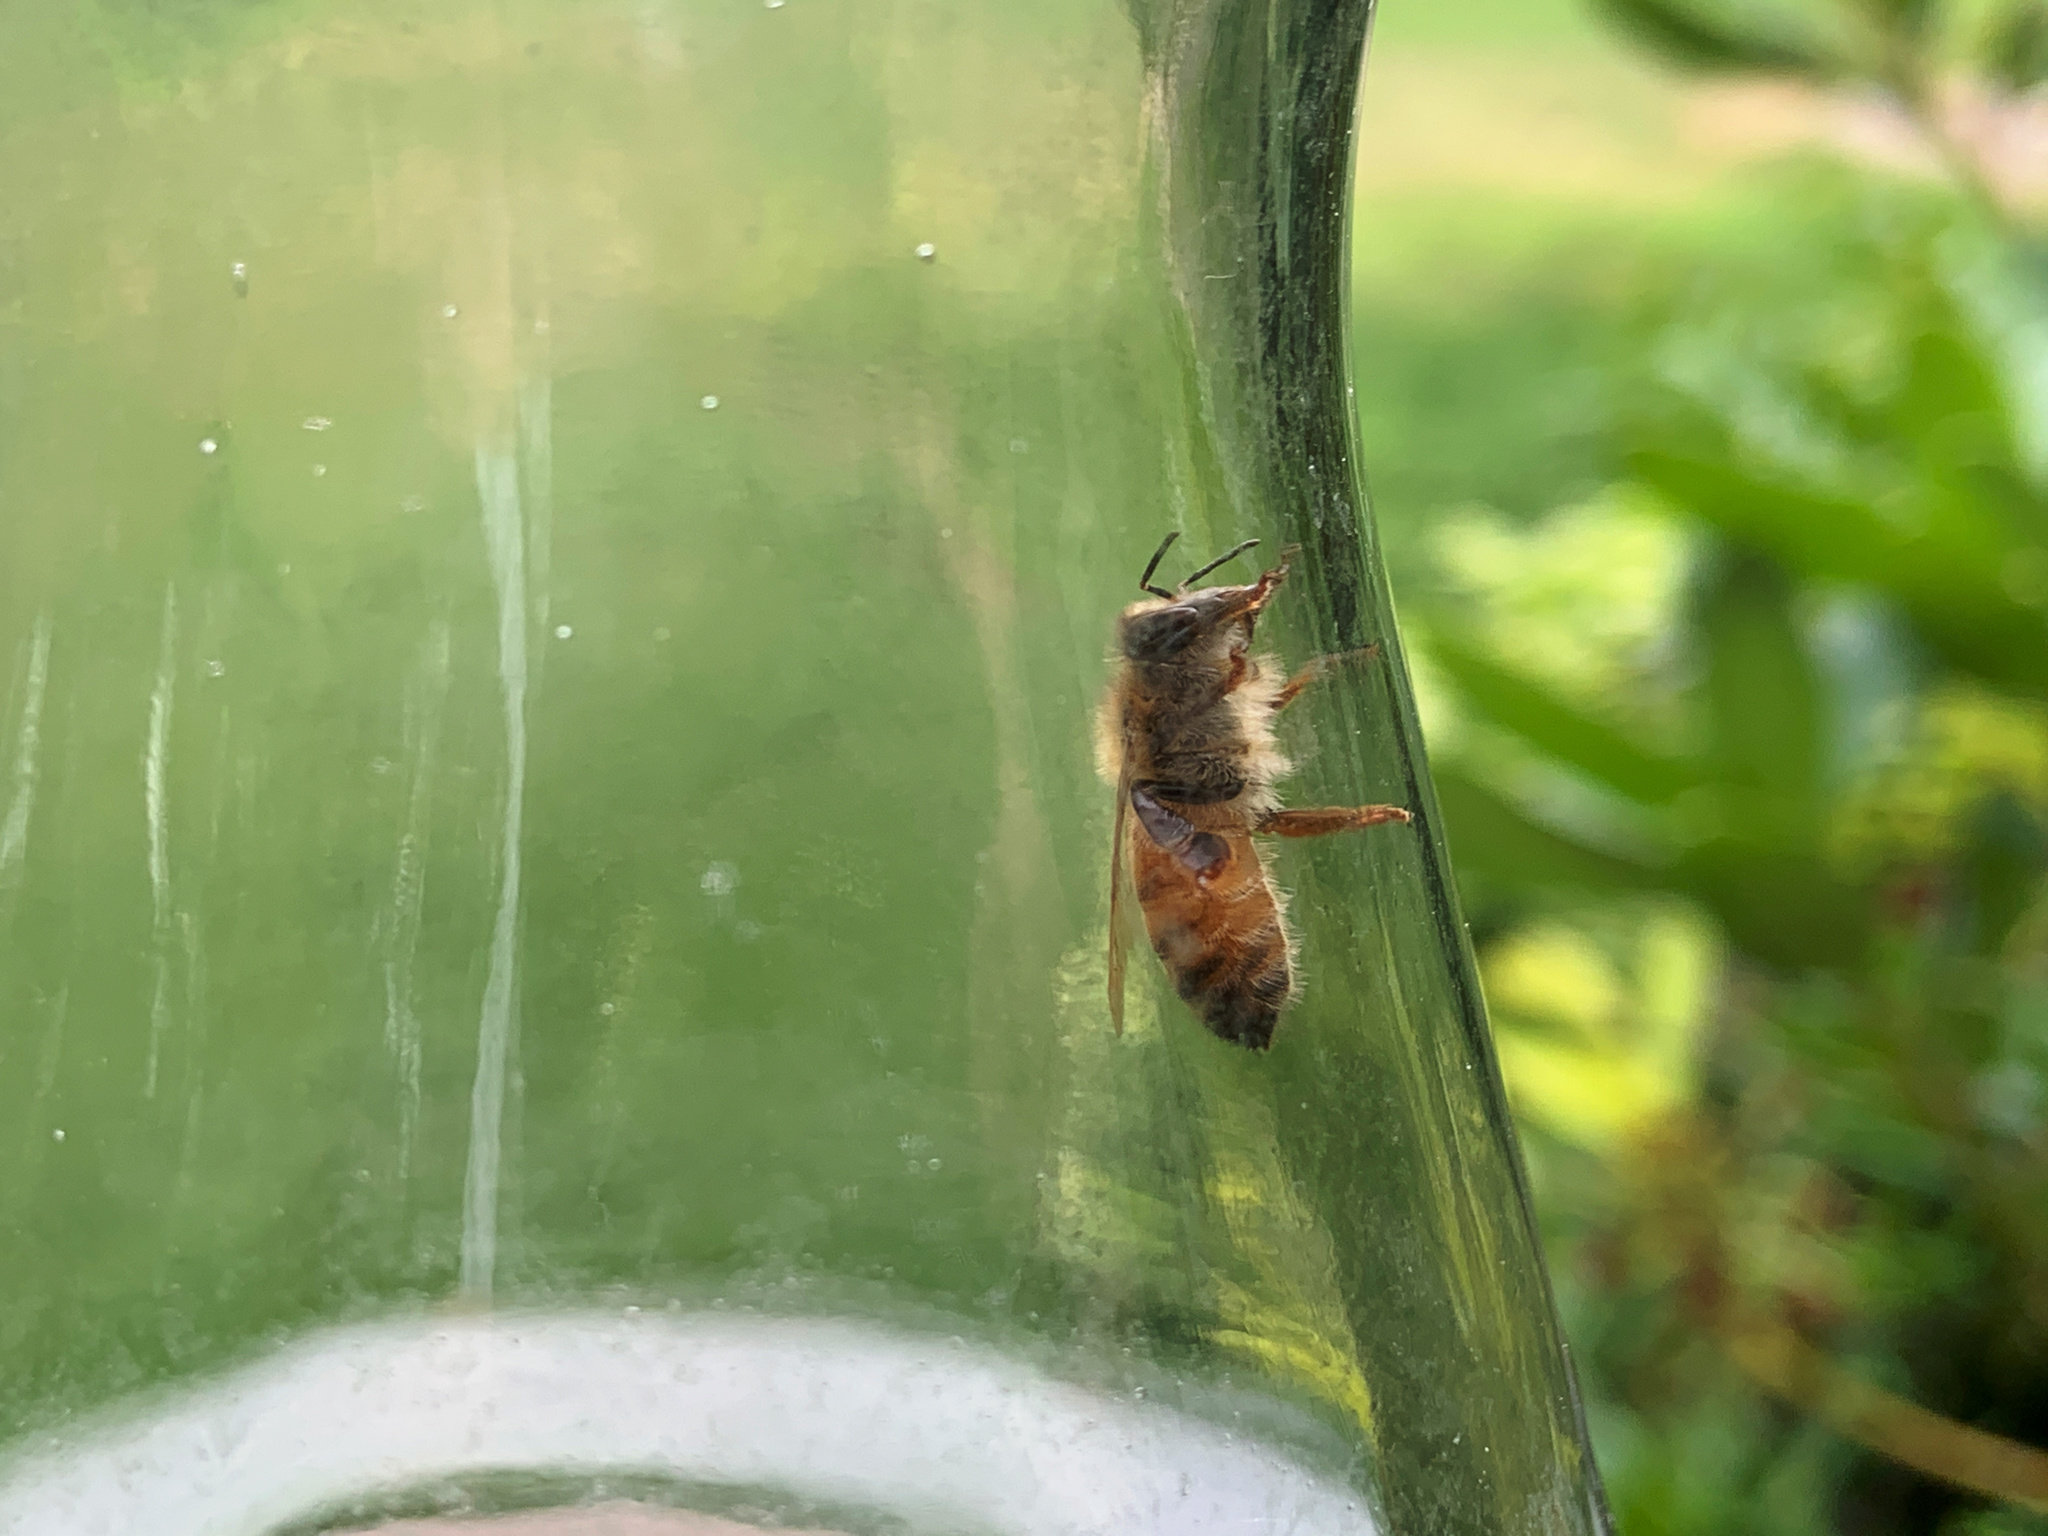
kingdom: Animalia
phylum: Arthropoda
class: Insecta
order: Hymenoptera
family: Apidae
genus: Apis
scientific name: Apis mellifera
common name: Honey bee
